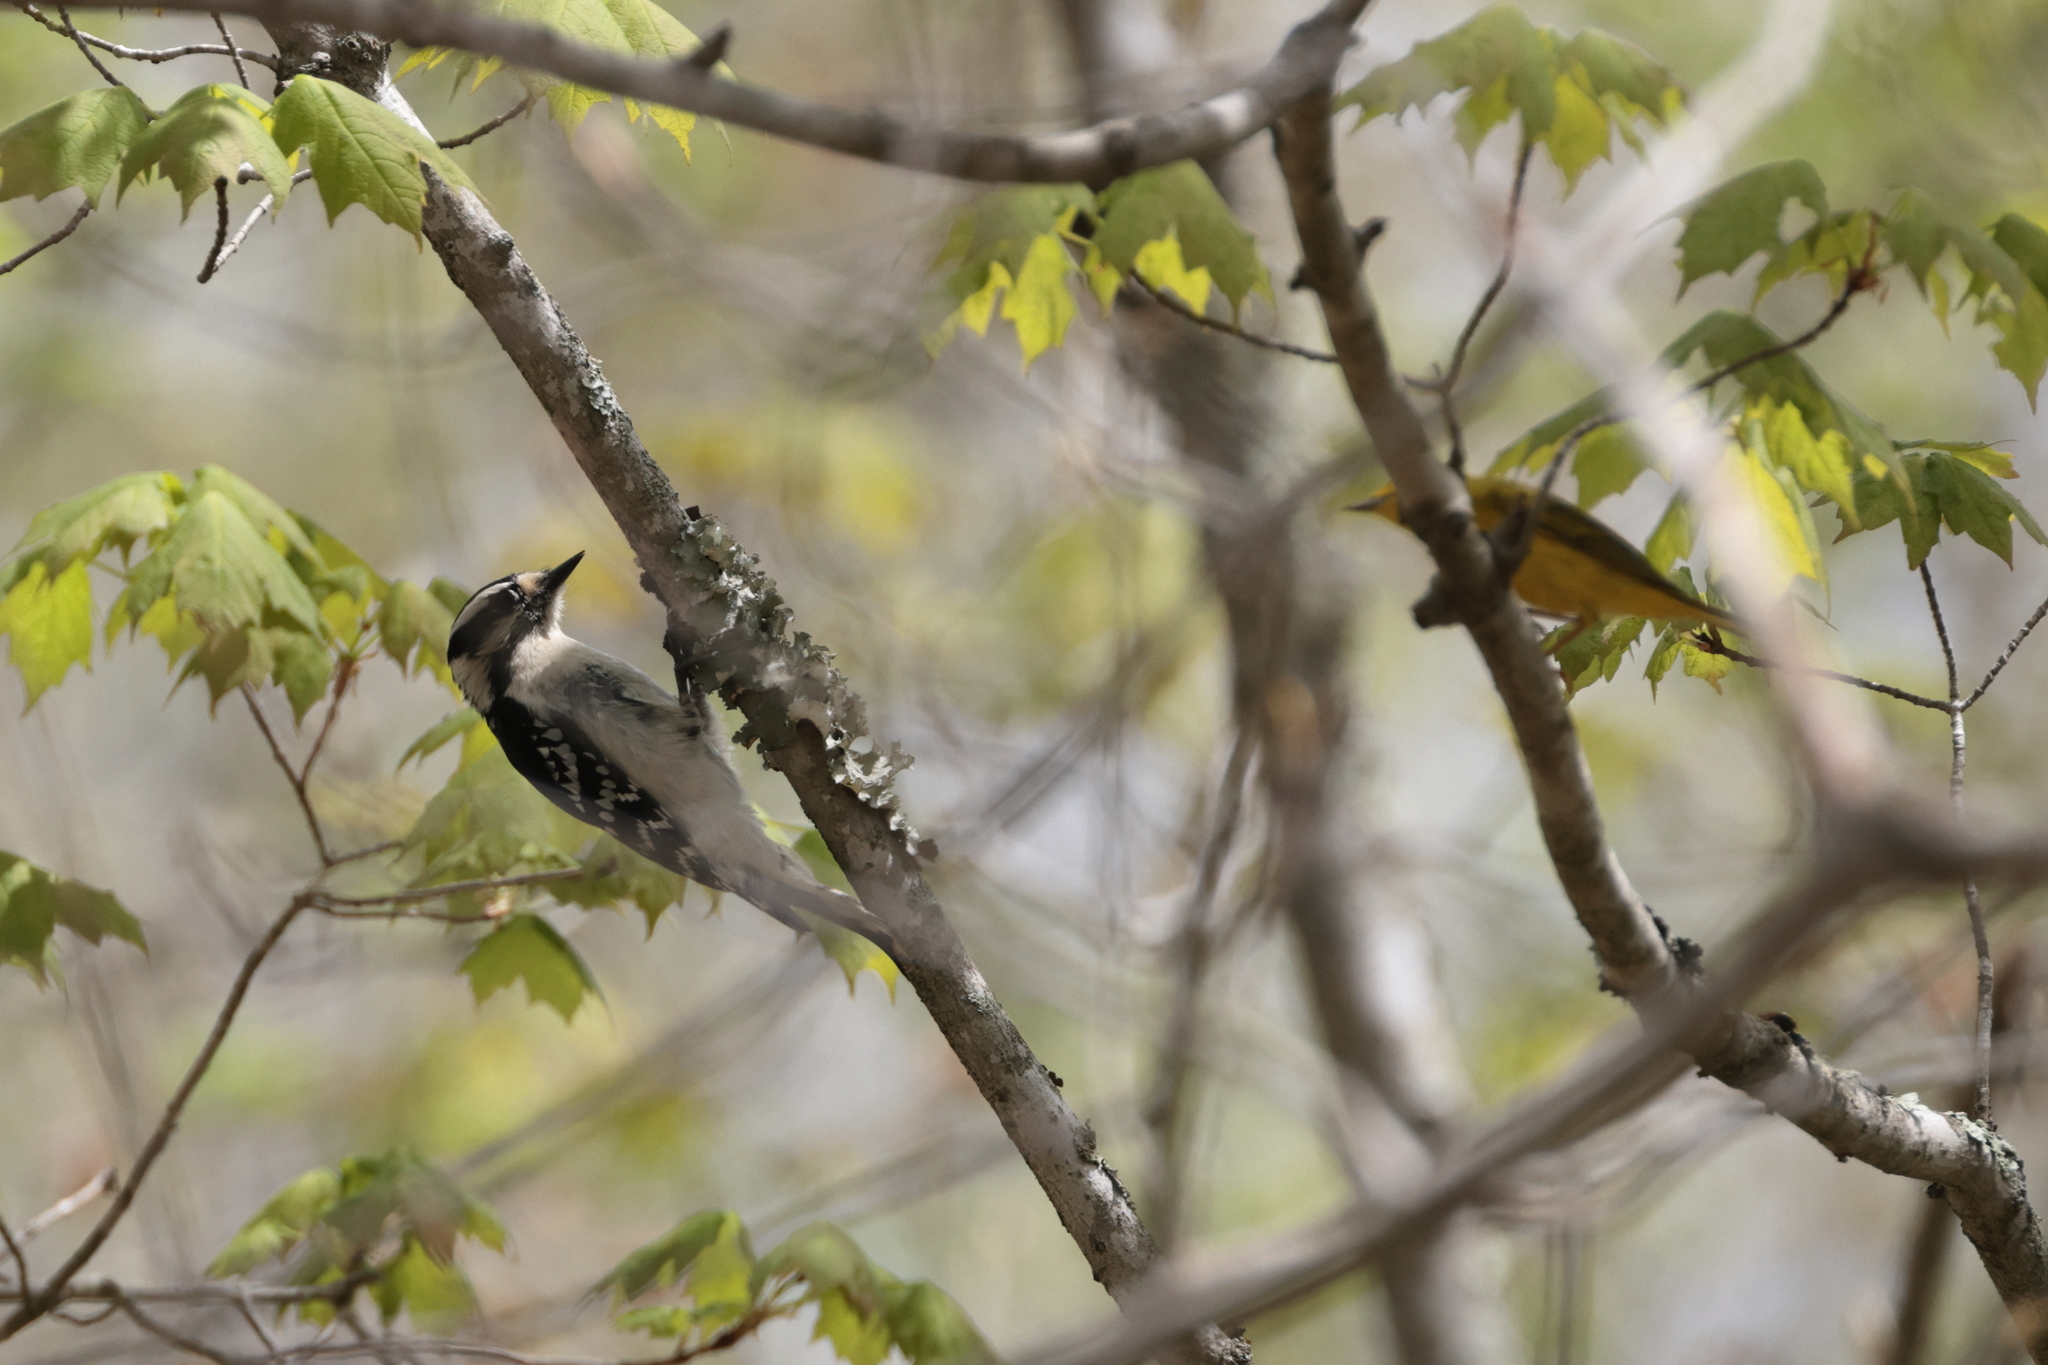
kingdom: Animalia
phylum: Chordata
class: Aves
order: Piciformes
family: Picidae
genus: Dryobates
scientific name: Dryobates pubescens
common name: Downy woodpecker
